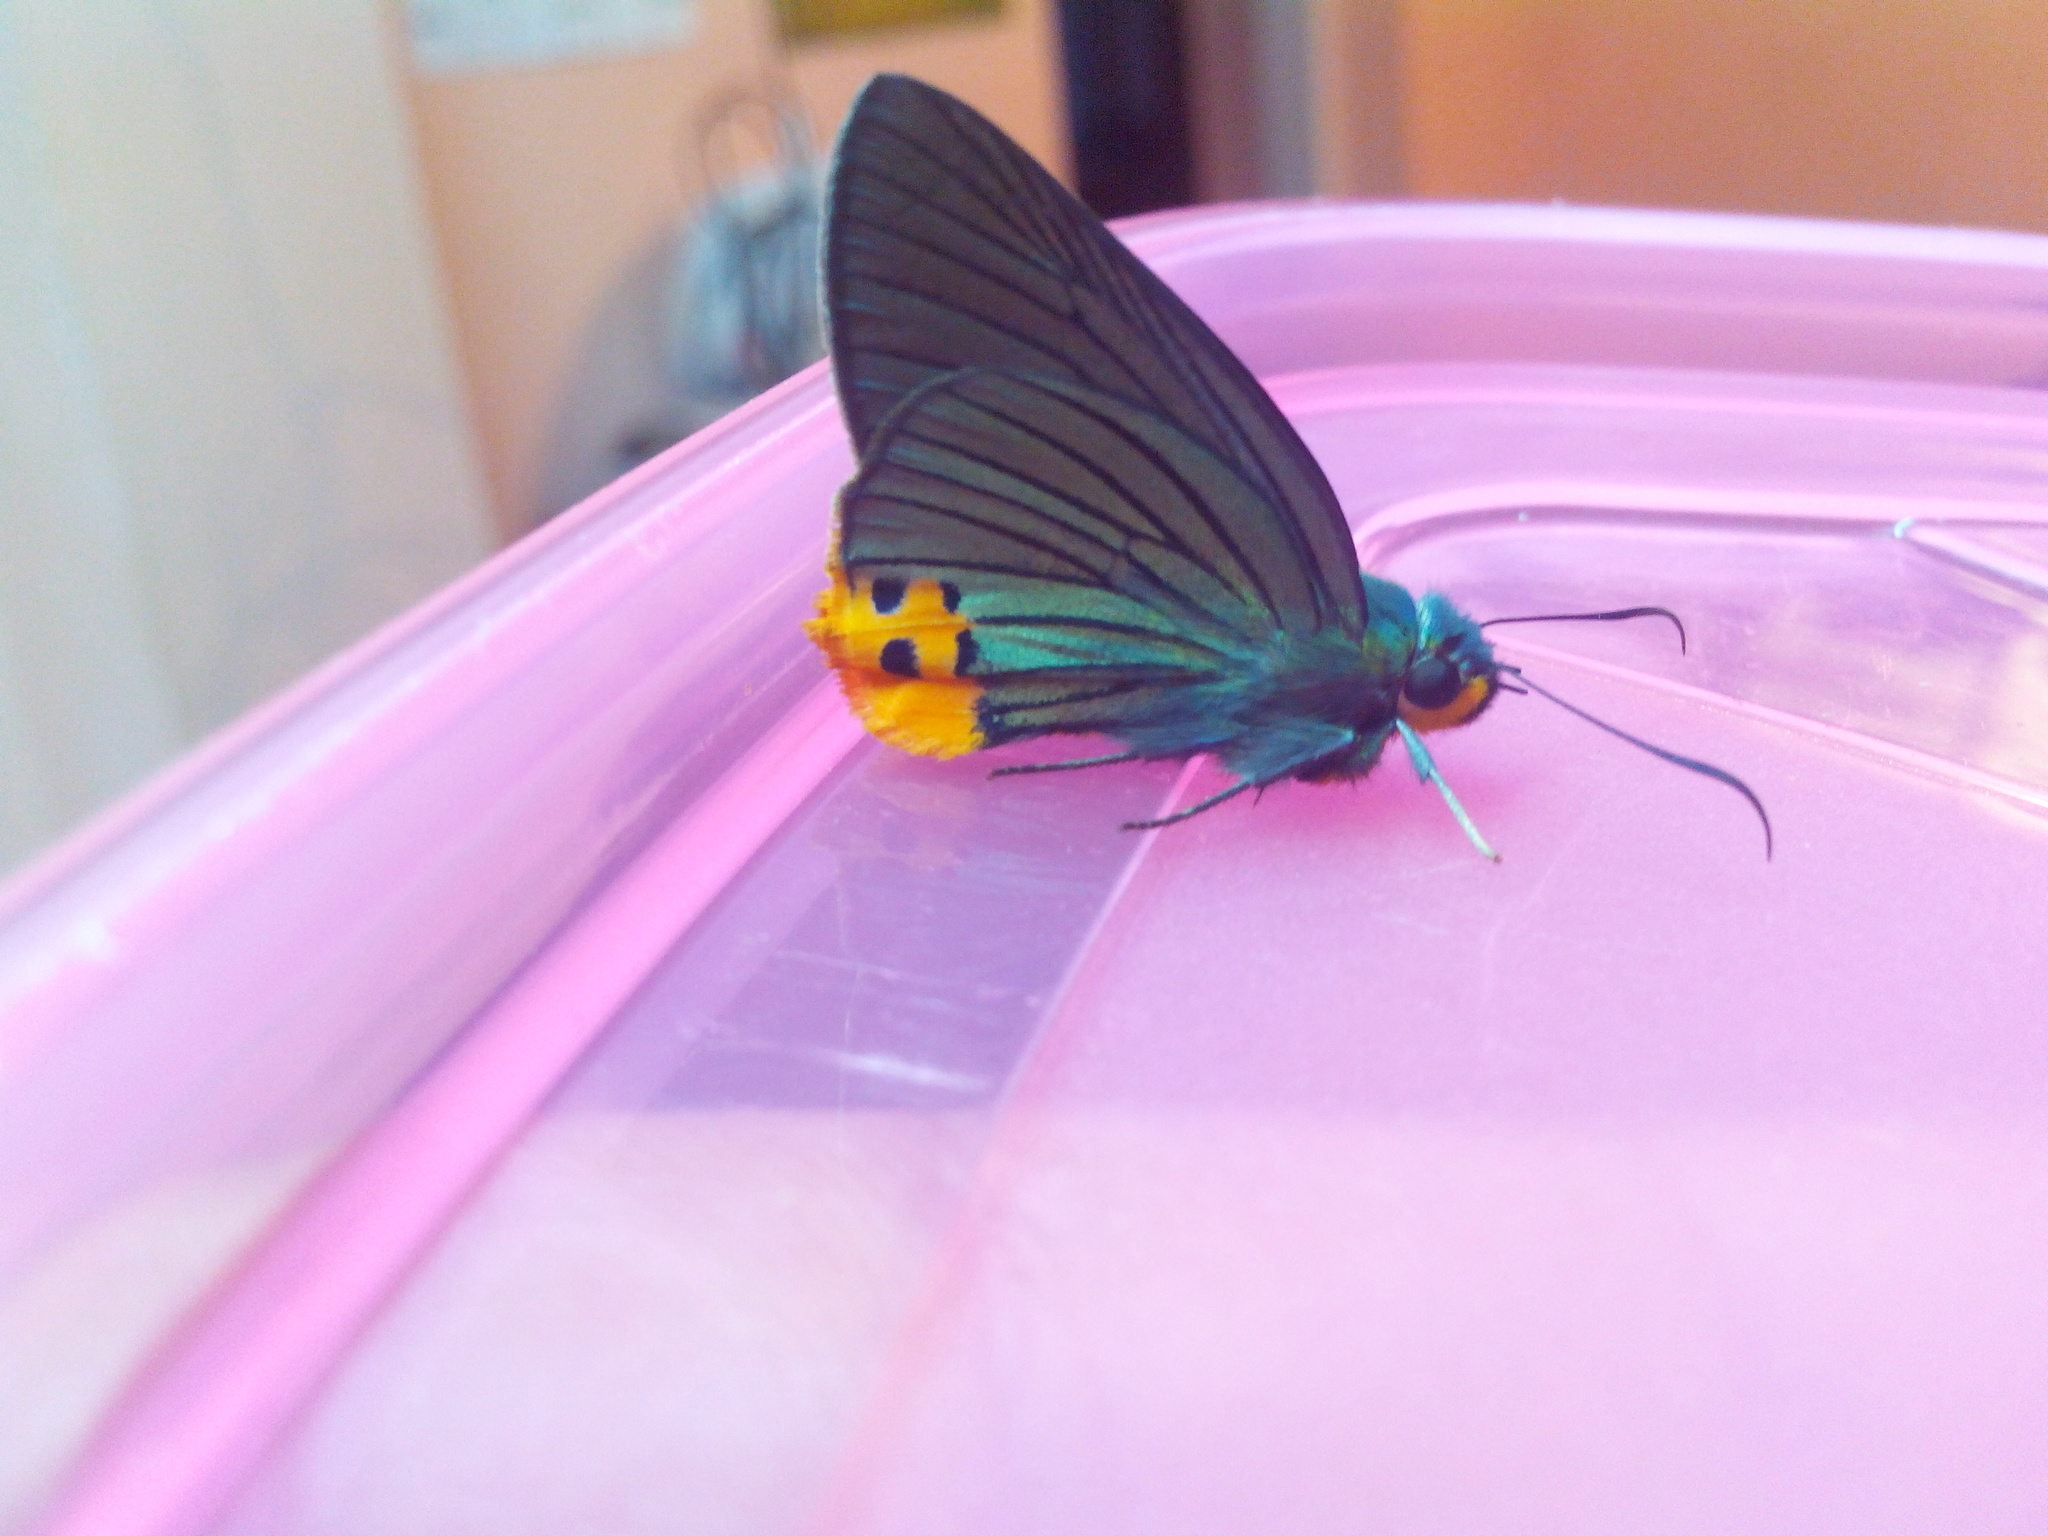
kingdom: Animalia
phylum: Arthropoda
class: Insecta
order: Lepidoptera
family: Hesperiidae
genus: Choaspes
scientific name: Choaspes benjaminii
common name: Indian awlking
